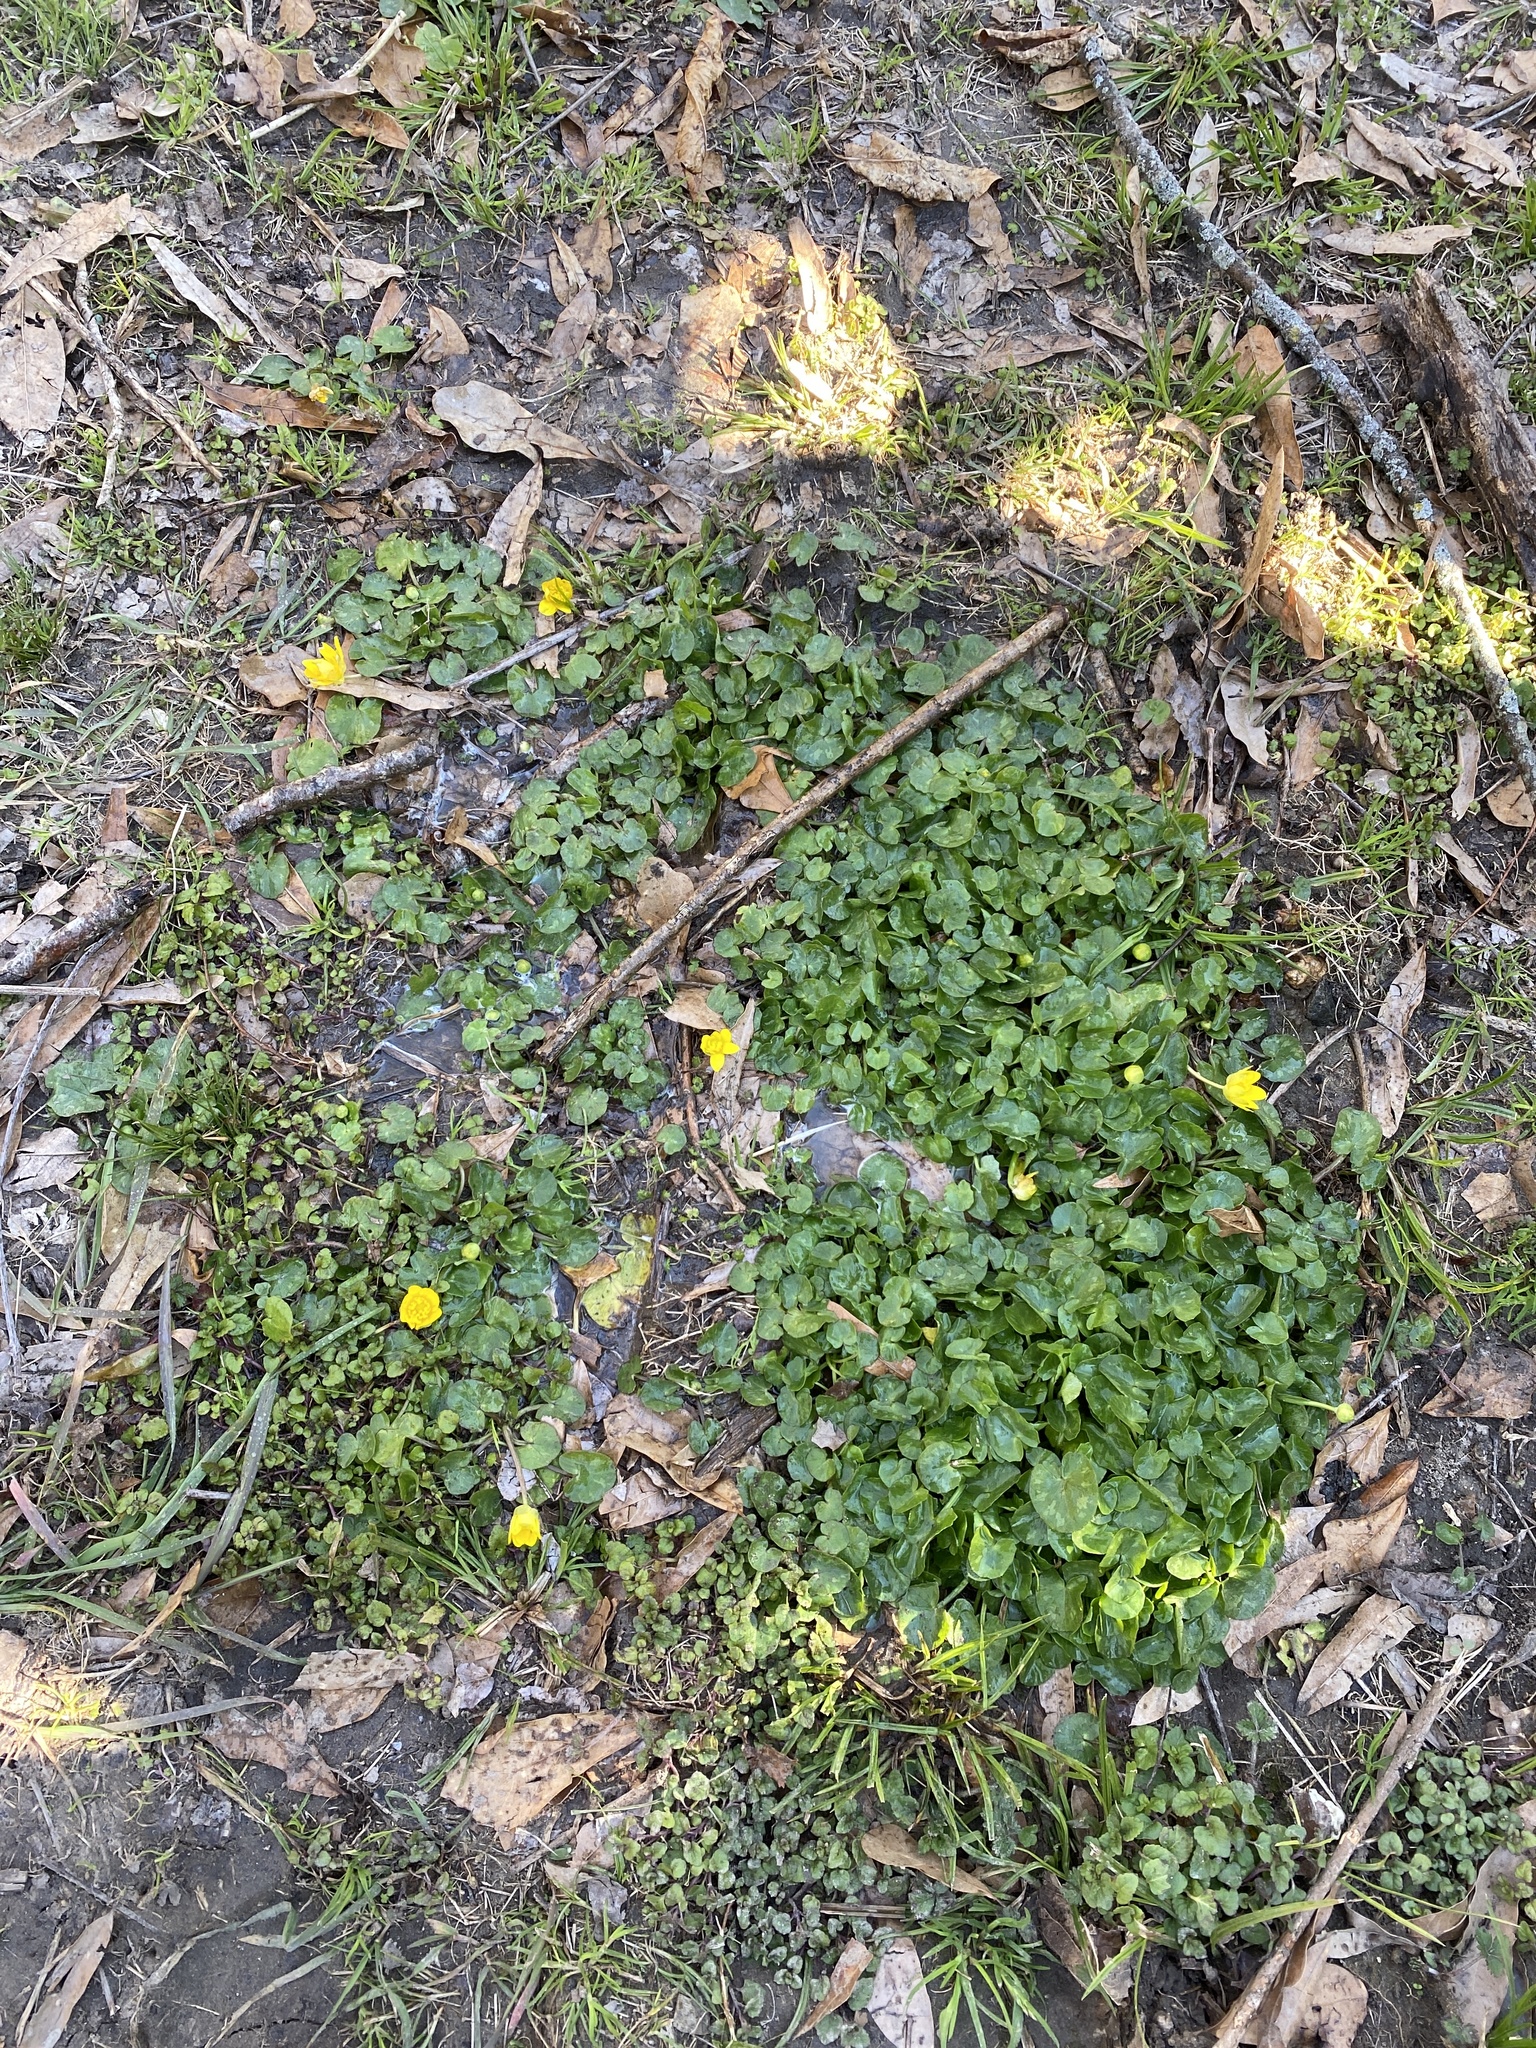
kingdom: Plantae
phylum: Tracheophyta
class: Magnoliopsida
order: Ranunculales
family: Ranunculaceae
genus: Ficaria
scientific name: Ficaria verna
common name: Lesser celandine
